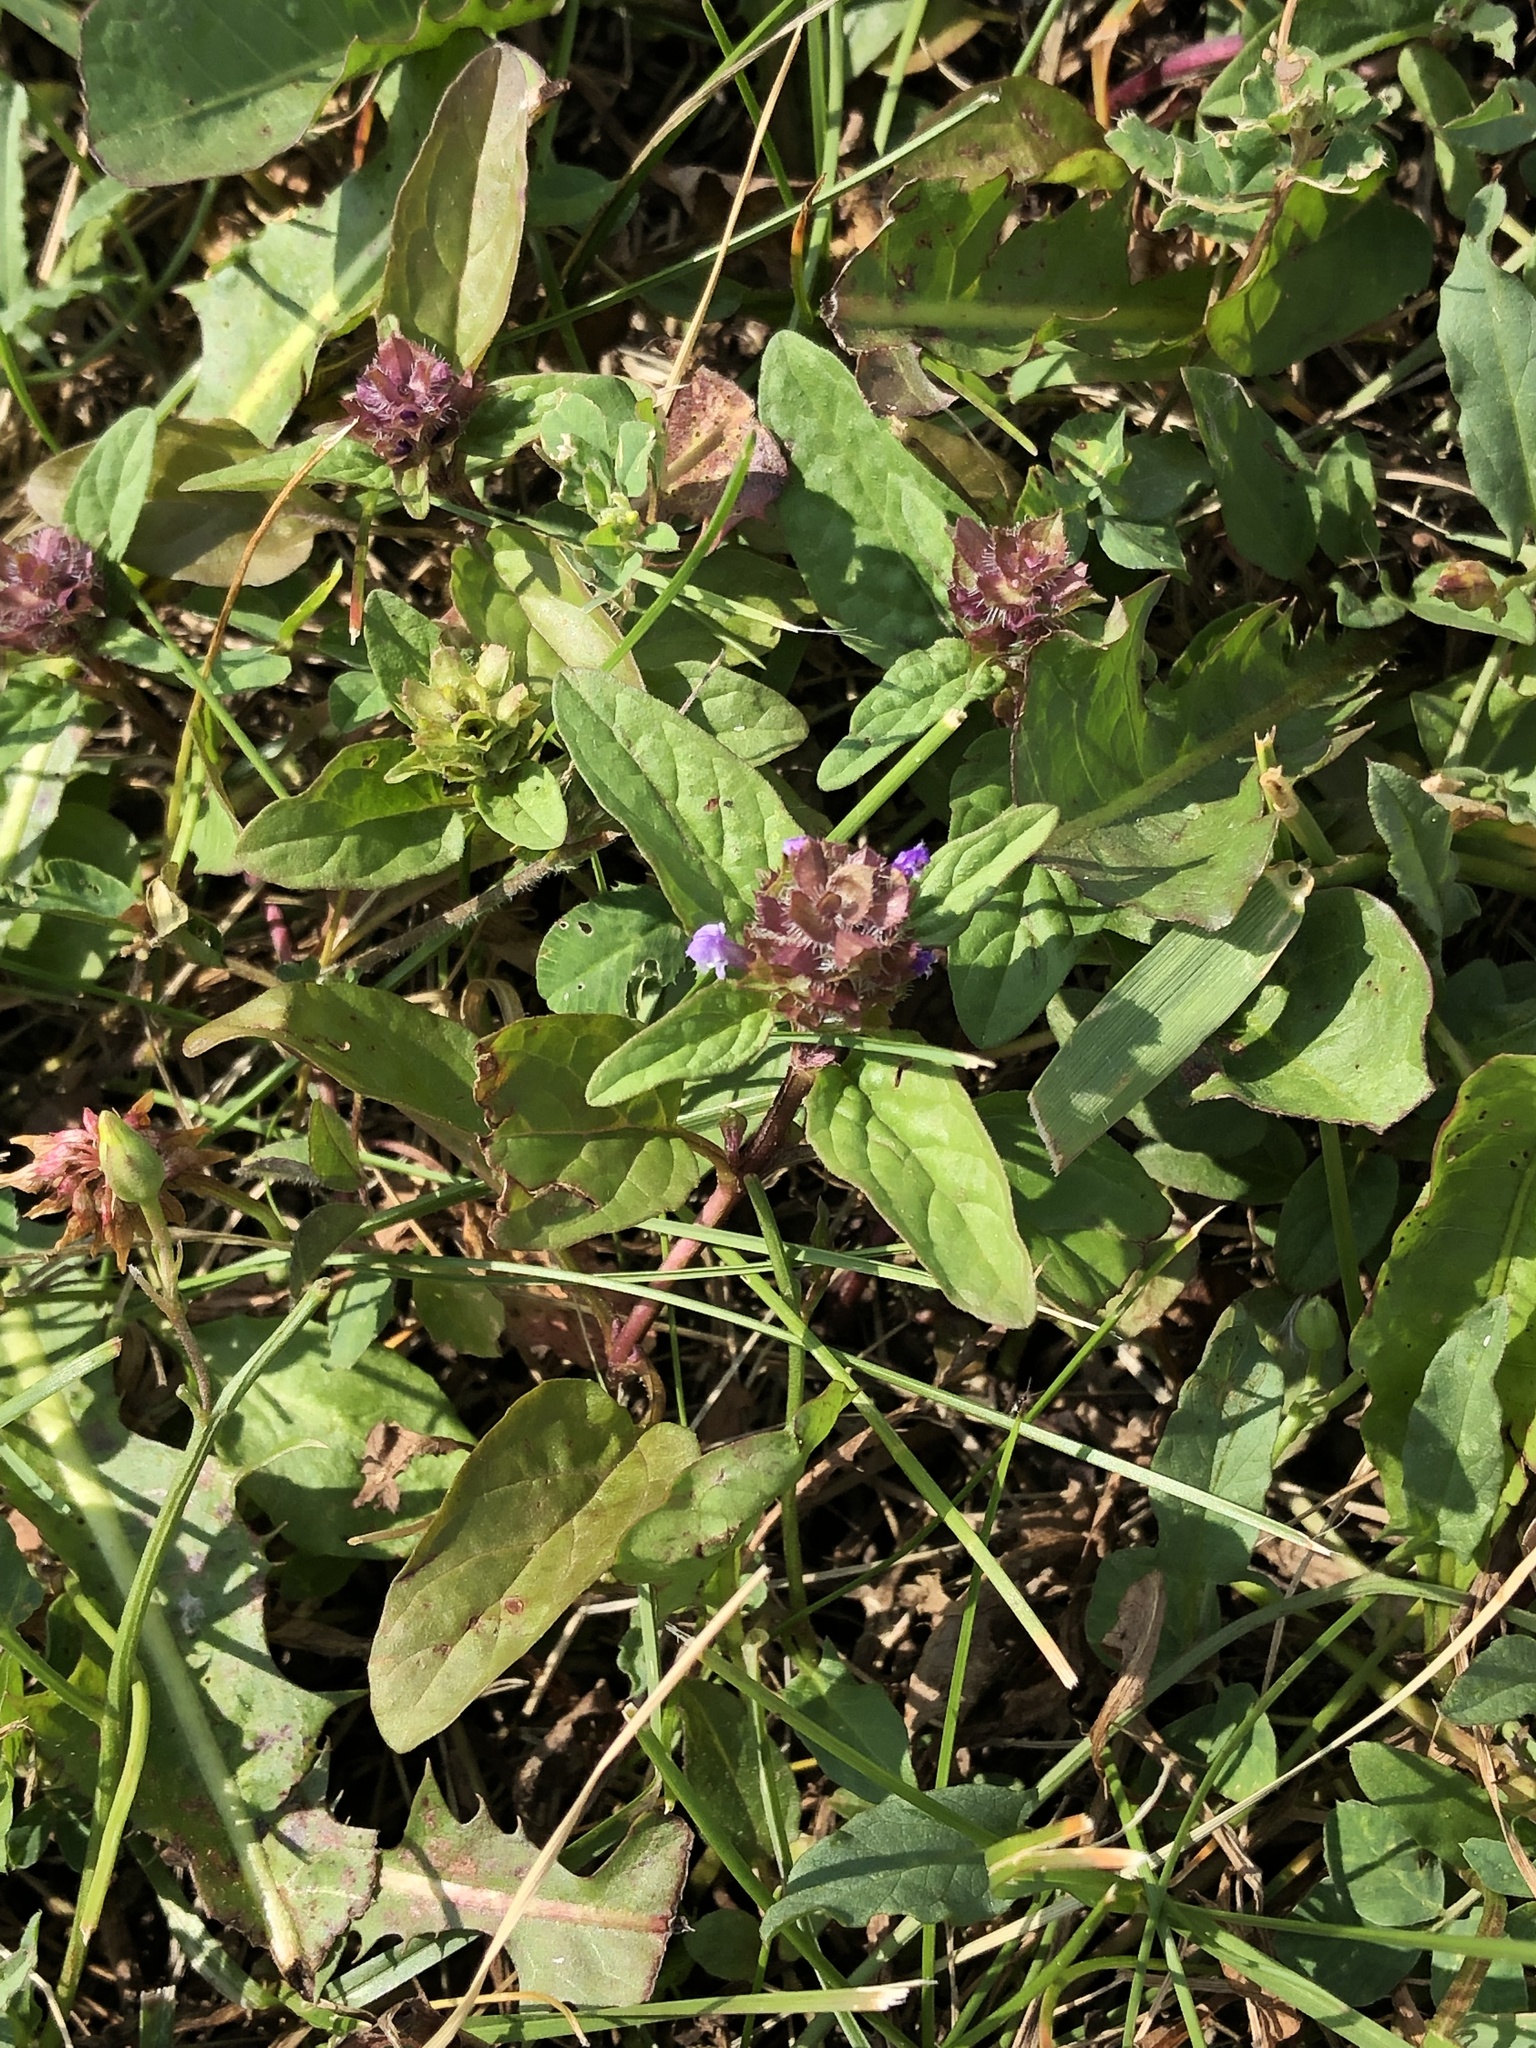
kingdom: Plantae
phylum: Tracheophyta
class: Magnoliopsida
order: Lamiales
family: Lamiaceae
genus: Prunella
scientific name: Prunella vulgaris
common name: Heal-all
